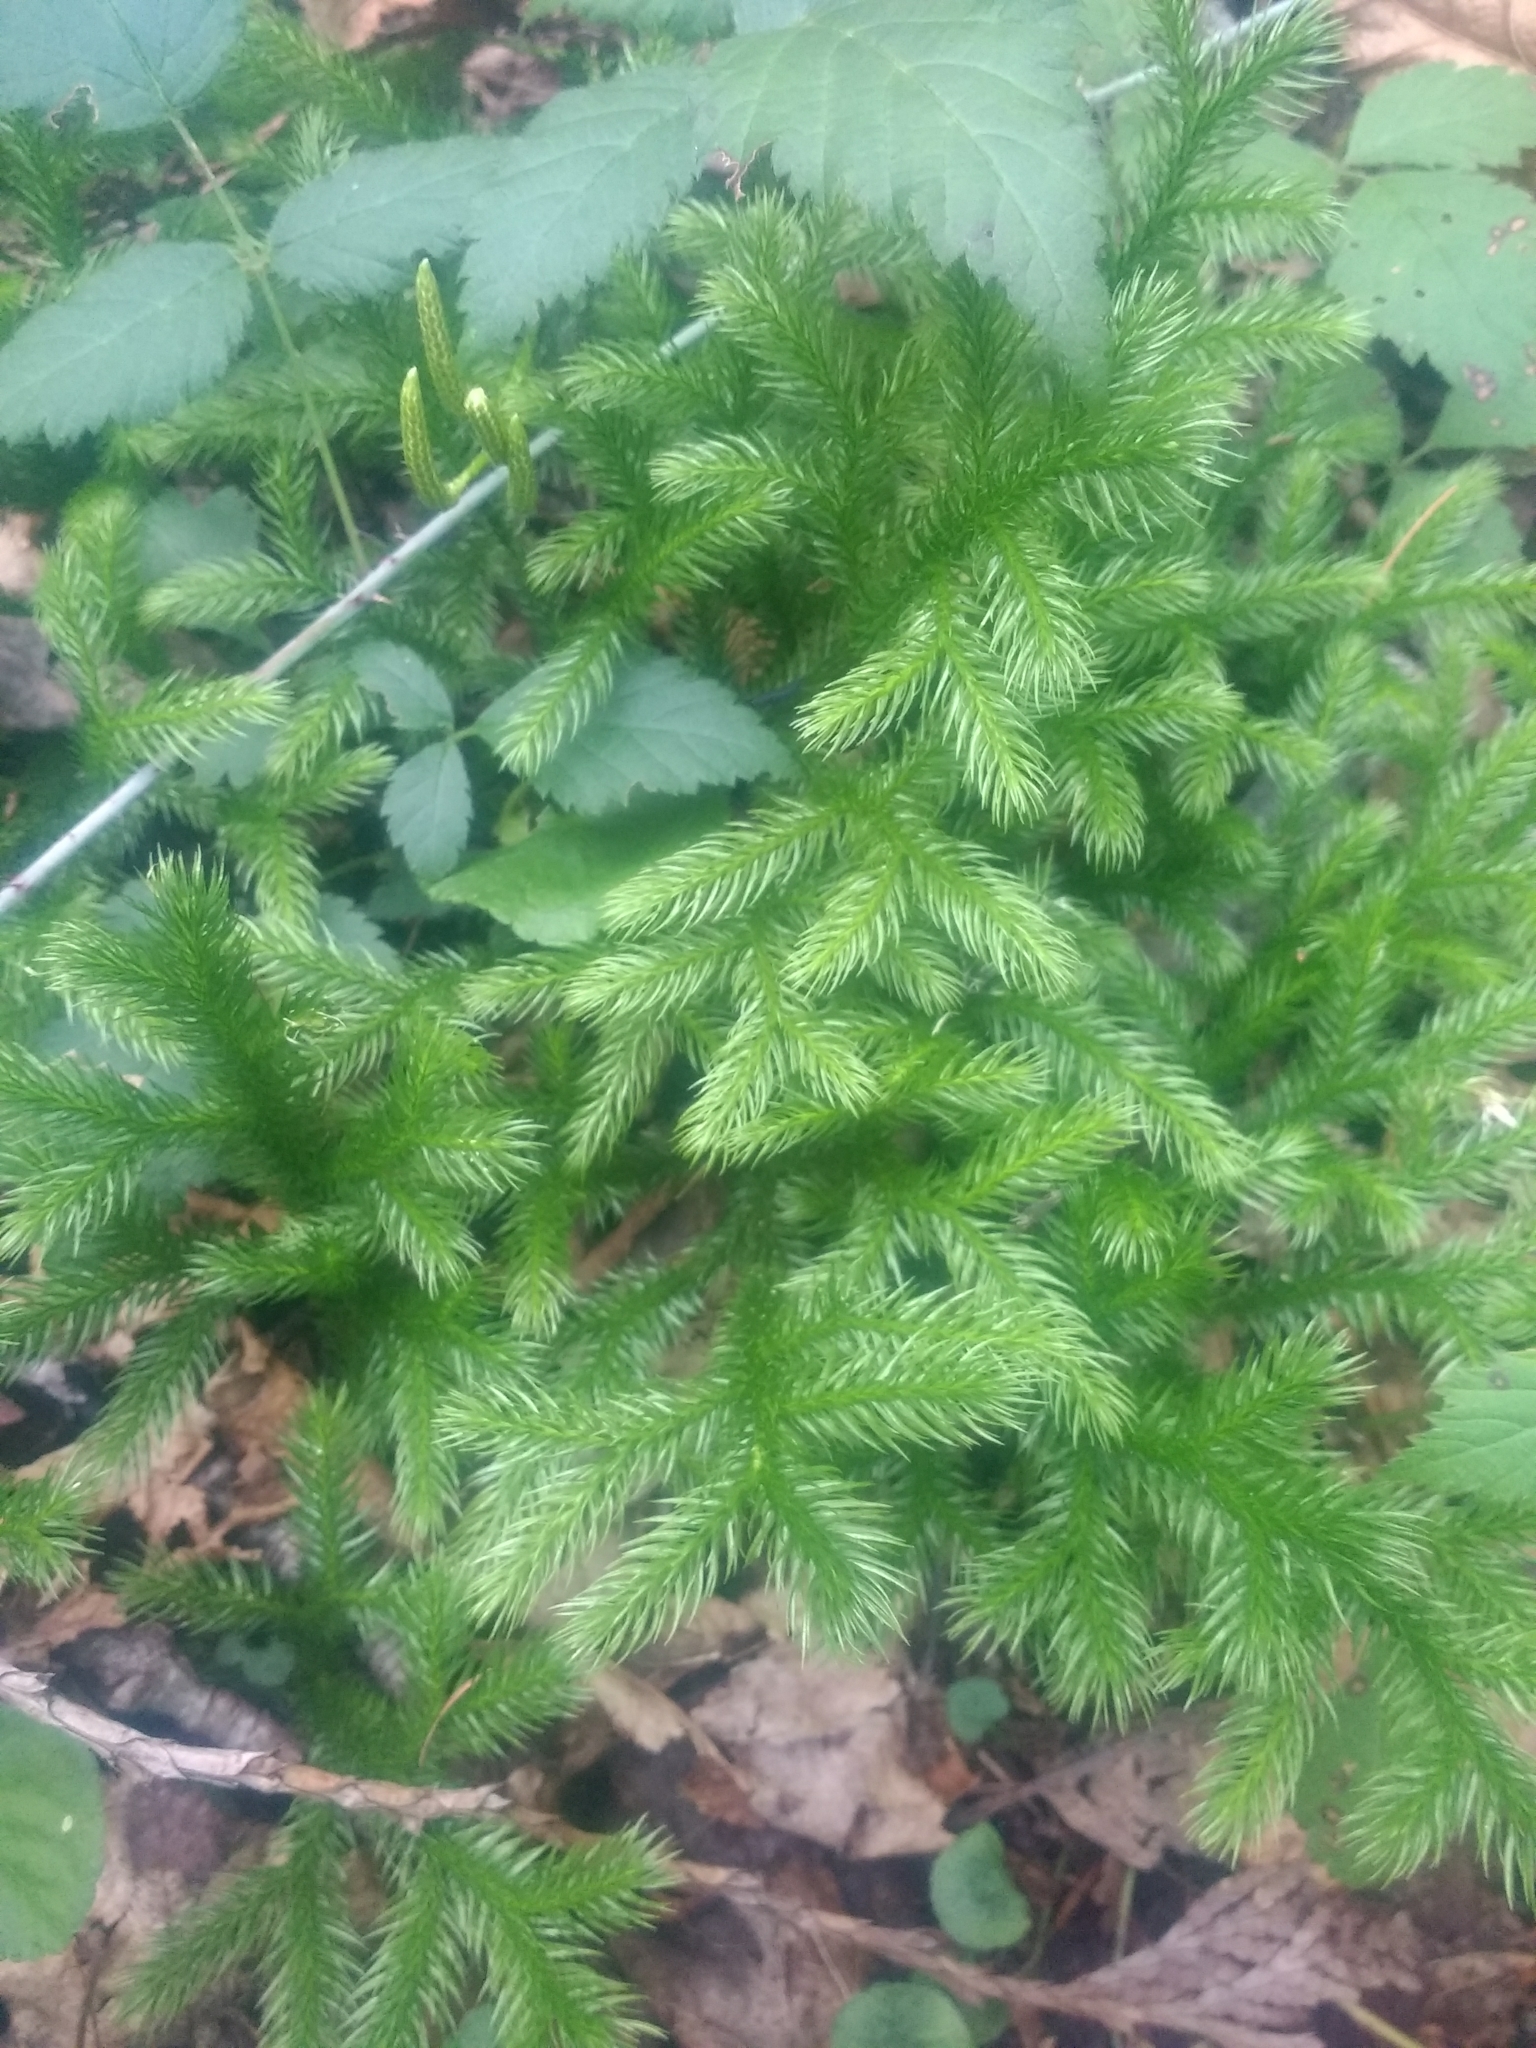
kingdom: Plantae
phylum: Tracheophyta
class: Lycopodiopsida
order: Lycopodiales
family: Lycopodiaceae
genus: Lycopodium
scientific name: Lycopodium clavatum
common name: Stag's-horn clubmoss
